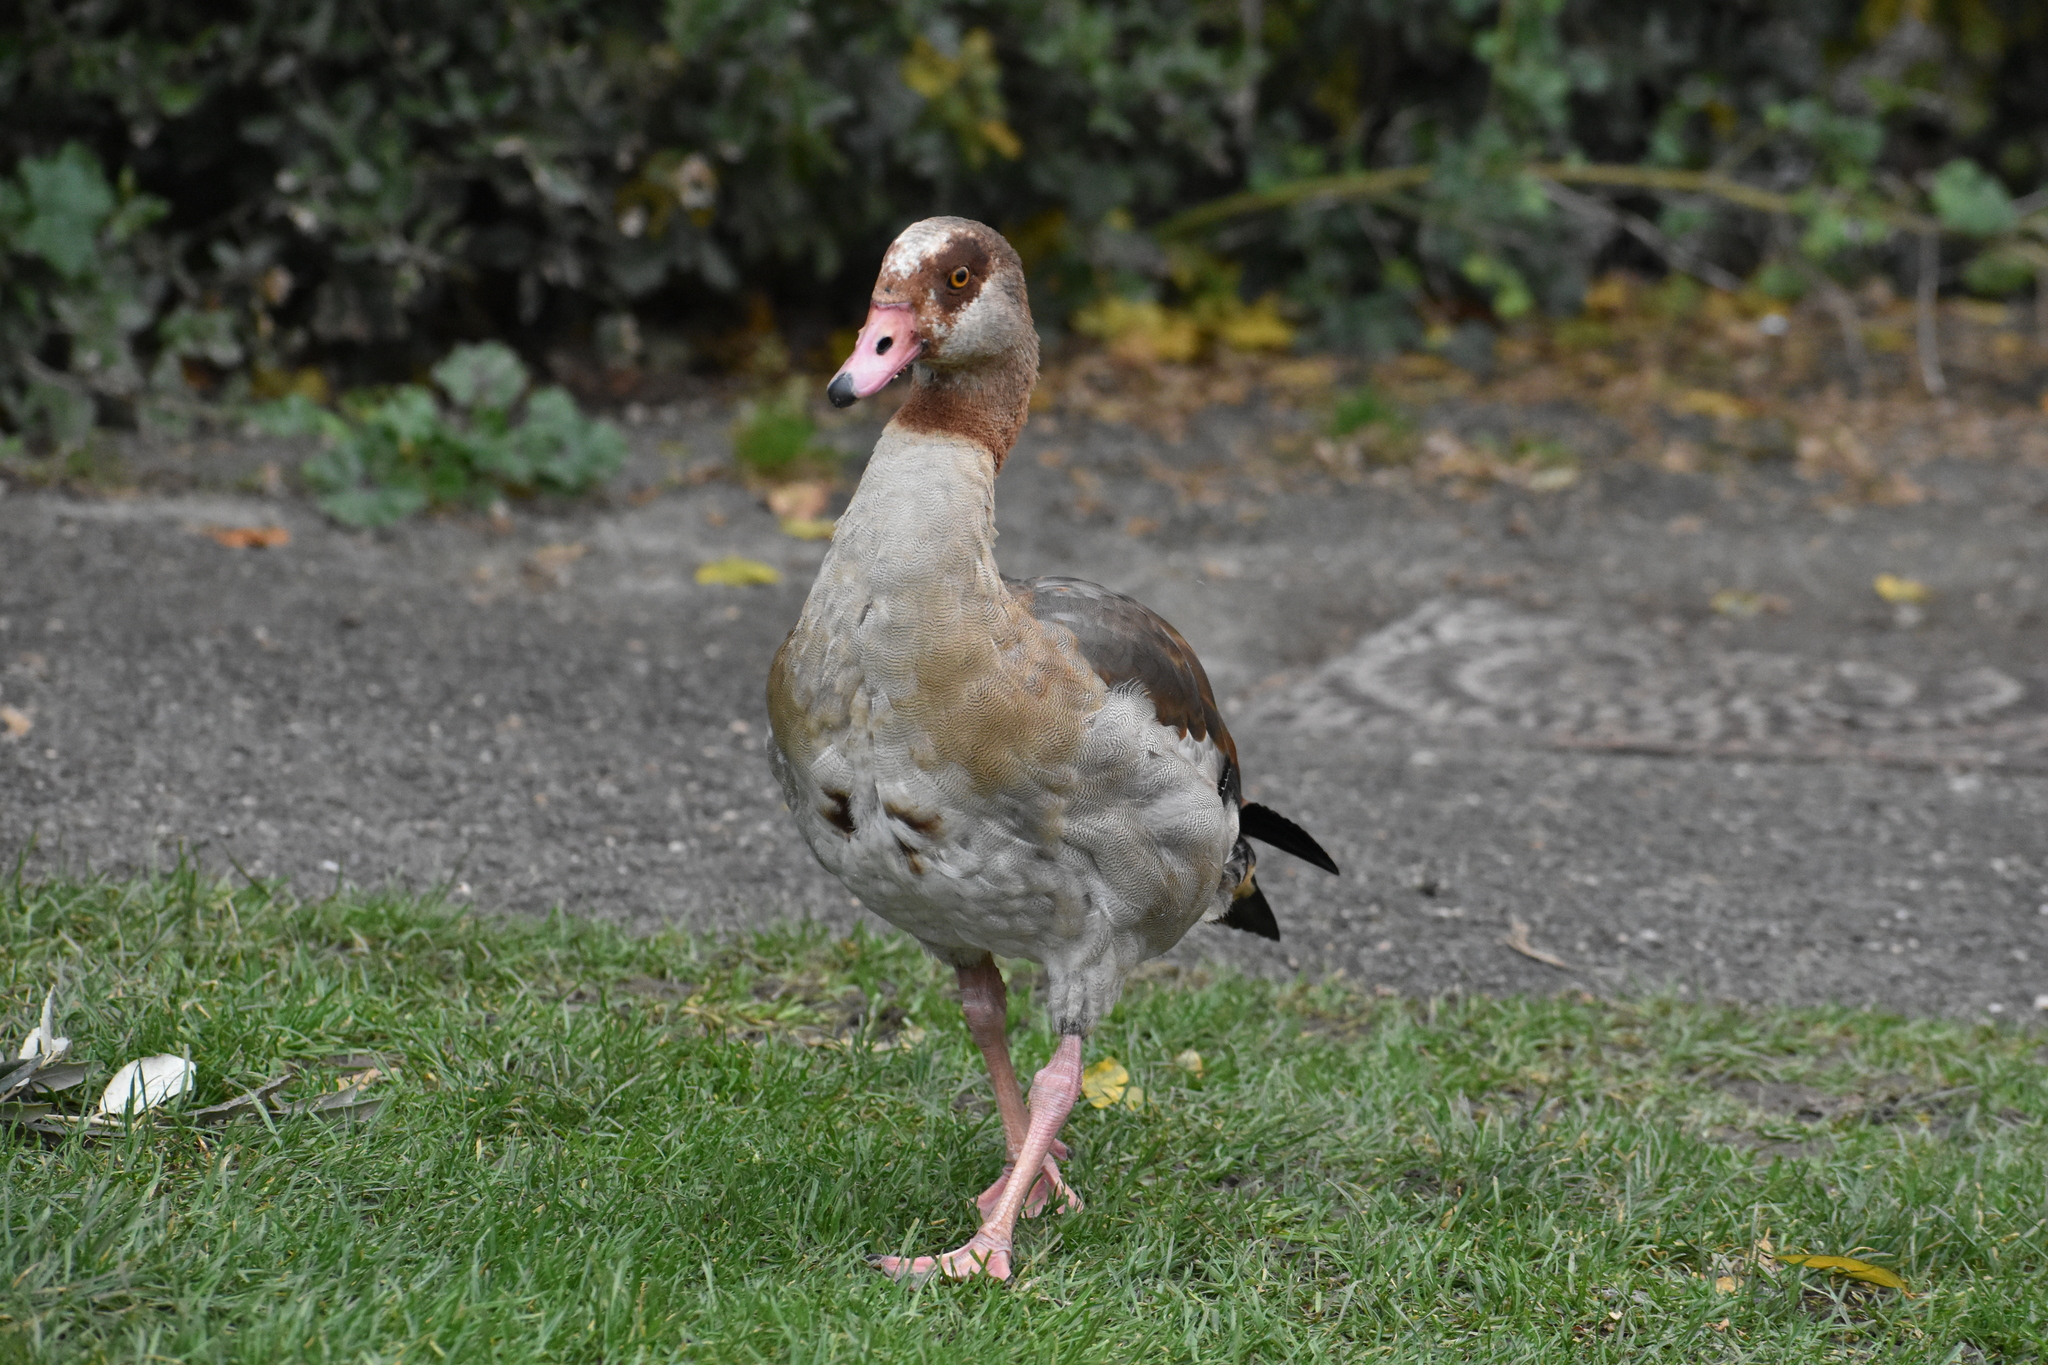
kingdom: Animalia
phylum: Chordata
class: Aves
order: Anseriformes
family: Anatidae
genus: Alopochen
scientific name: Alopochen aegyptiaca
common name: Egyptian goose
